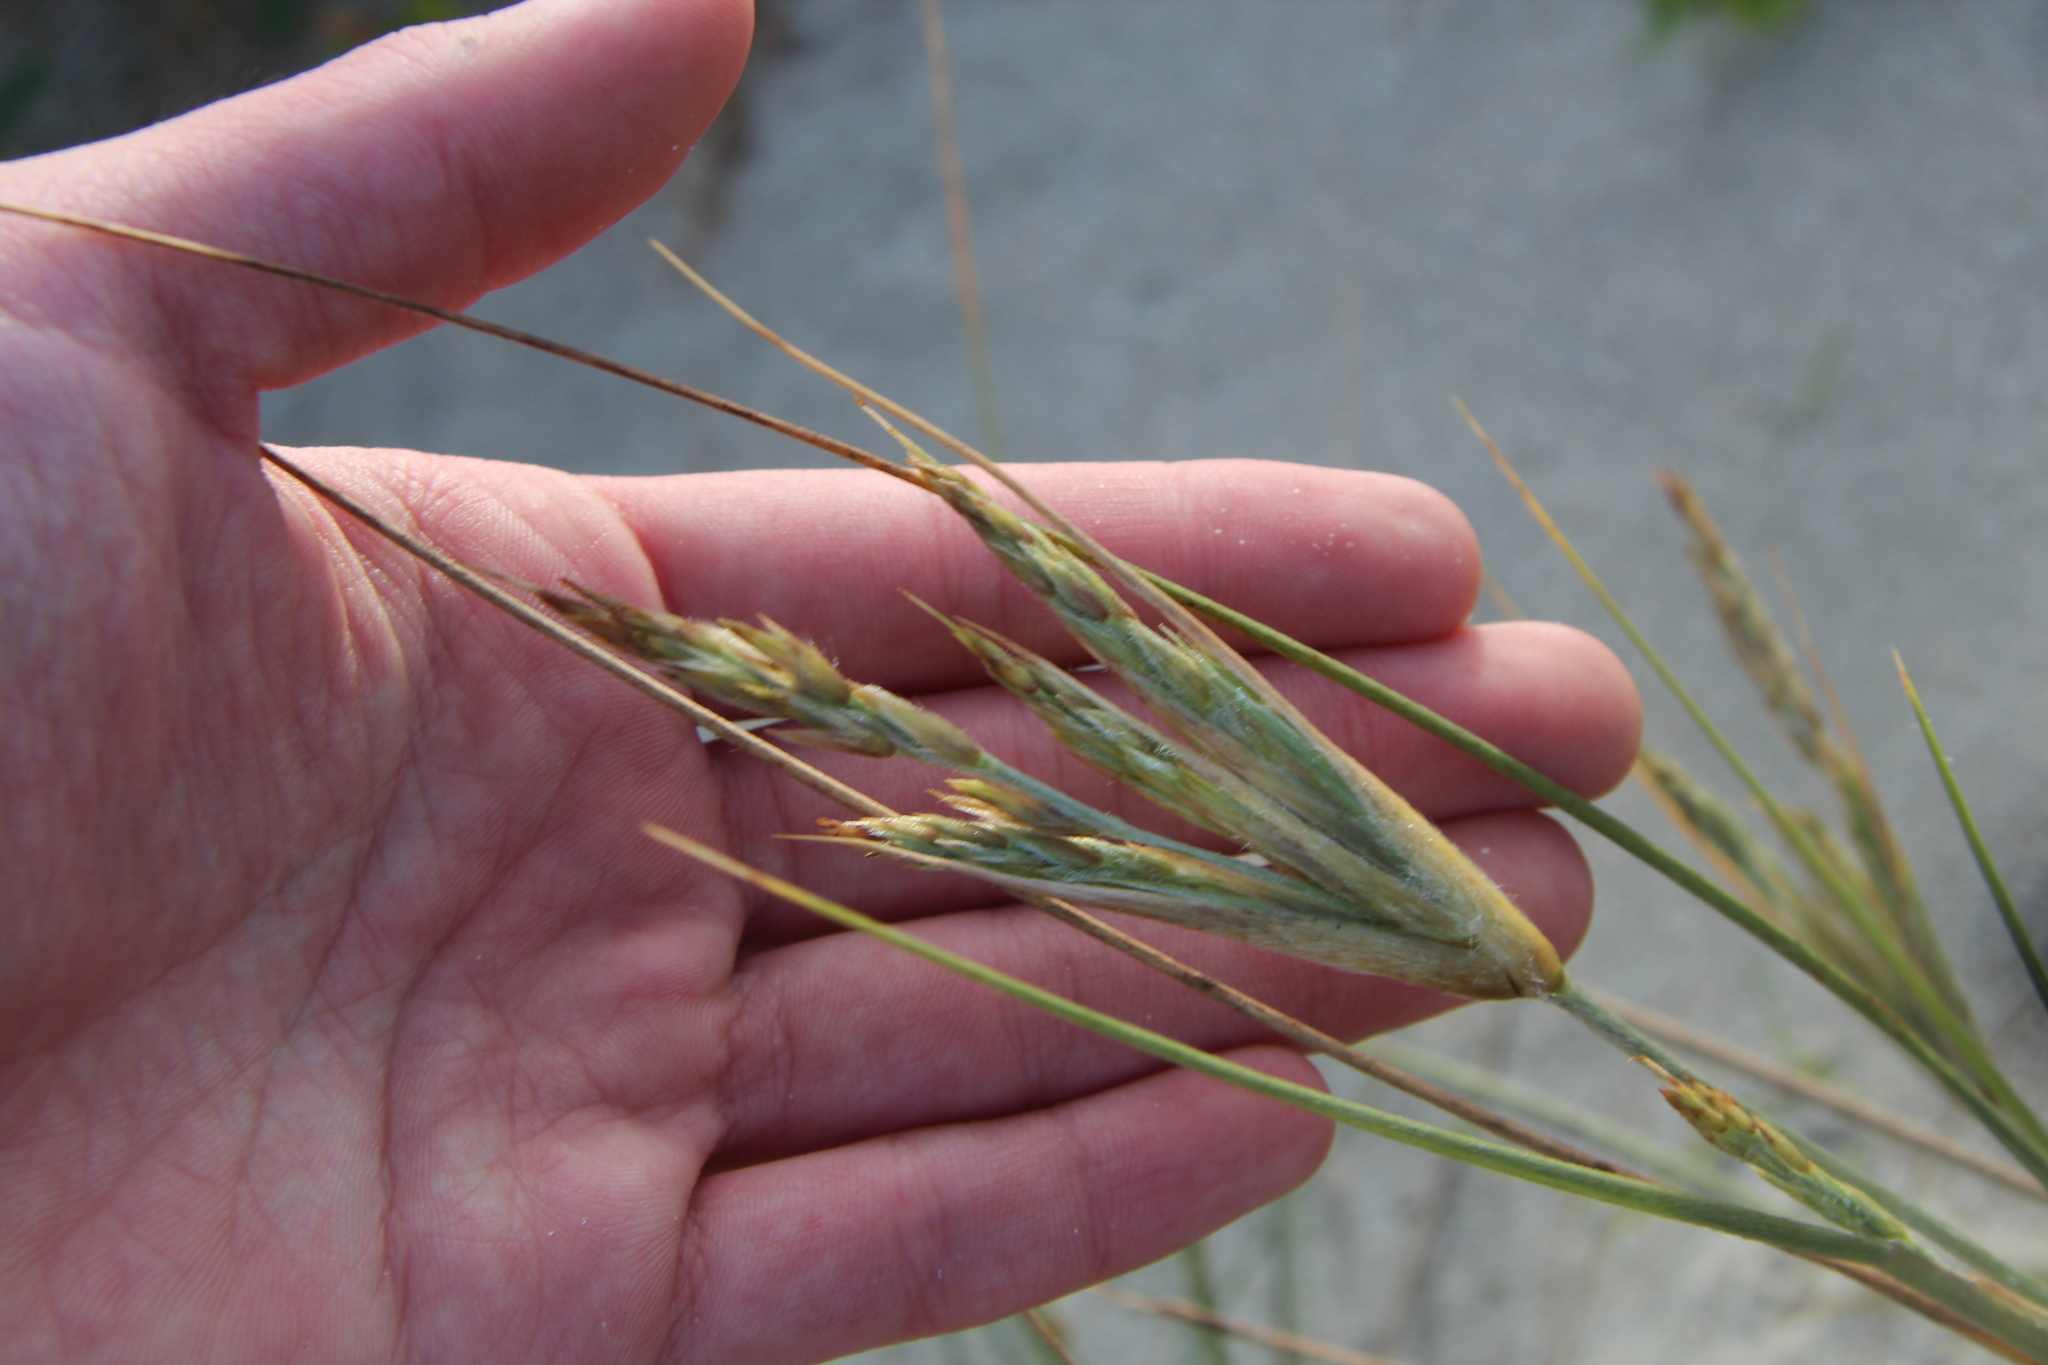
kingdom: Plantae
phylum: Tracheophyta
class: Liliopsida
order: Poales
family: Poaceae
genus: Spinifex
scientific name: Spinifex sericeus
